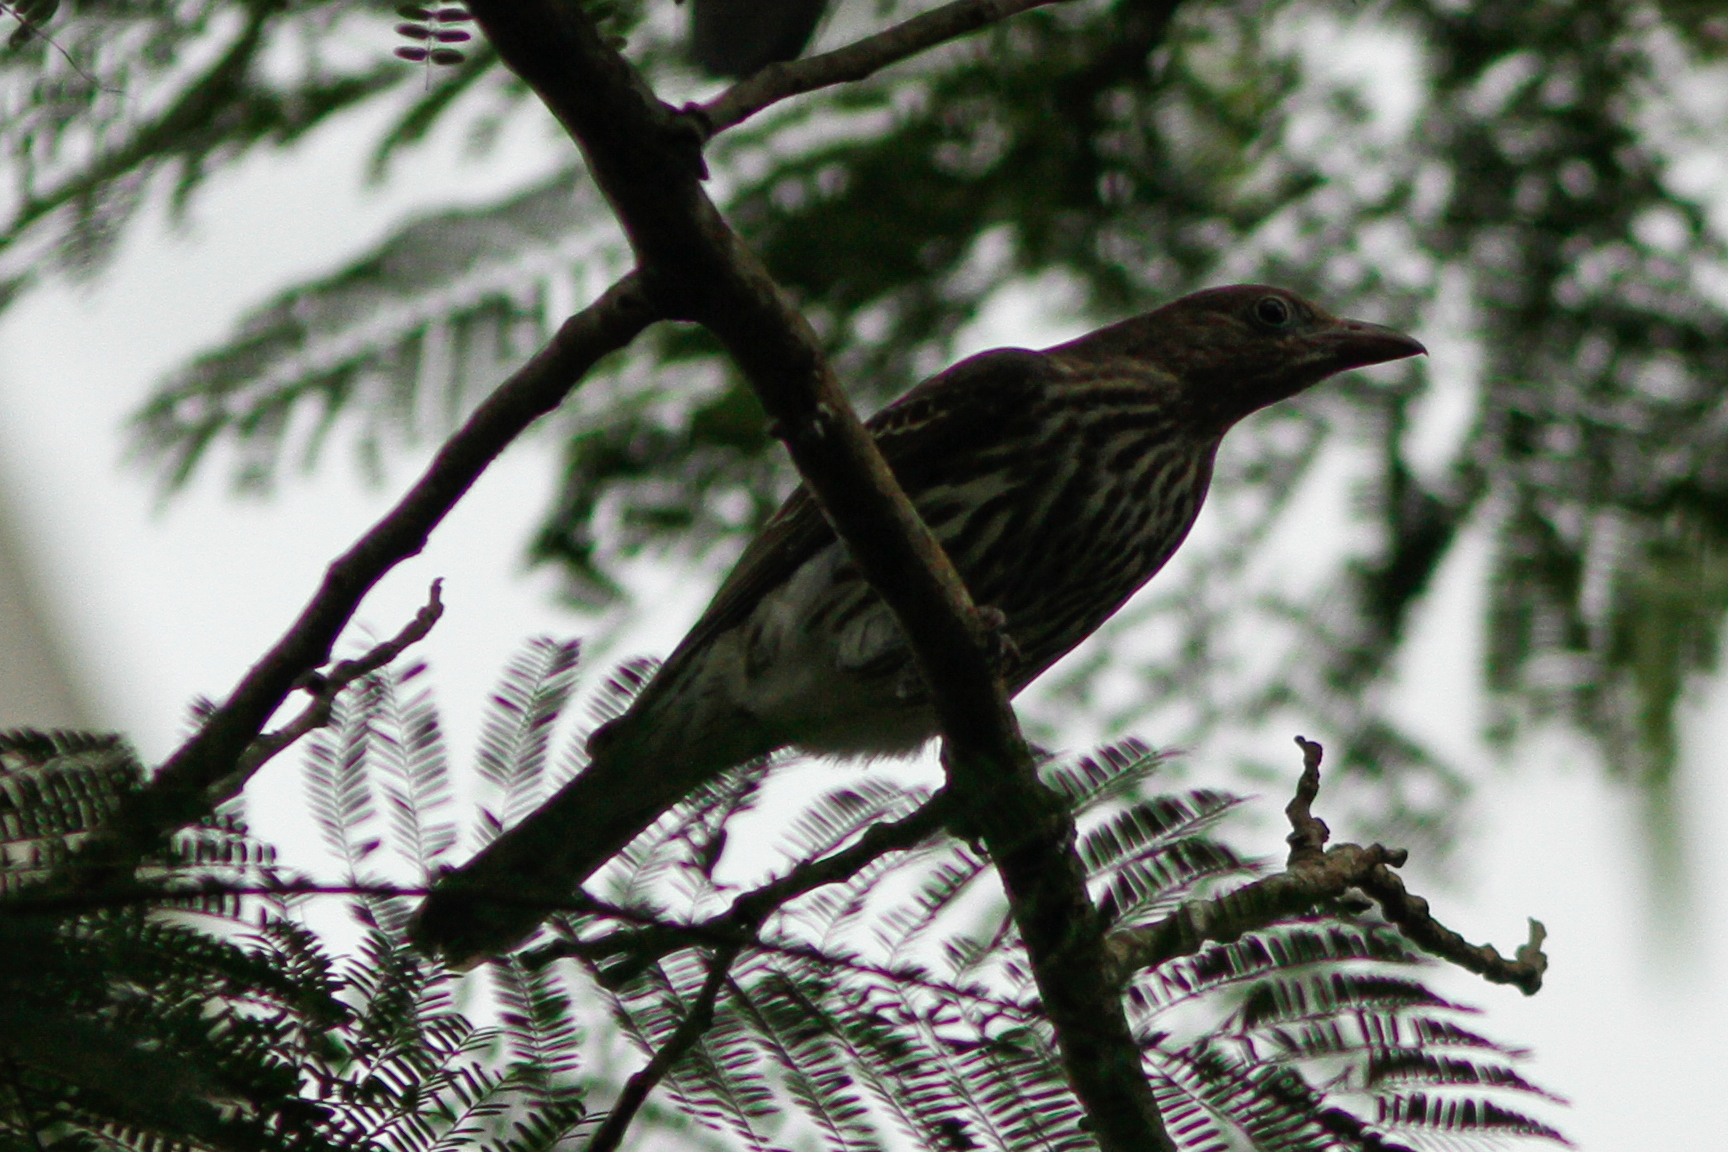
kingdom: Animalia
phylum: Chordata
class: Aves
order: Passeriformes
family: Oriolidae
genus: Sphecotheres
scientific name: Sphecotheres vieilloti
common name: Australasian figbird
